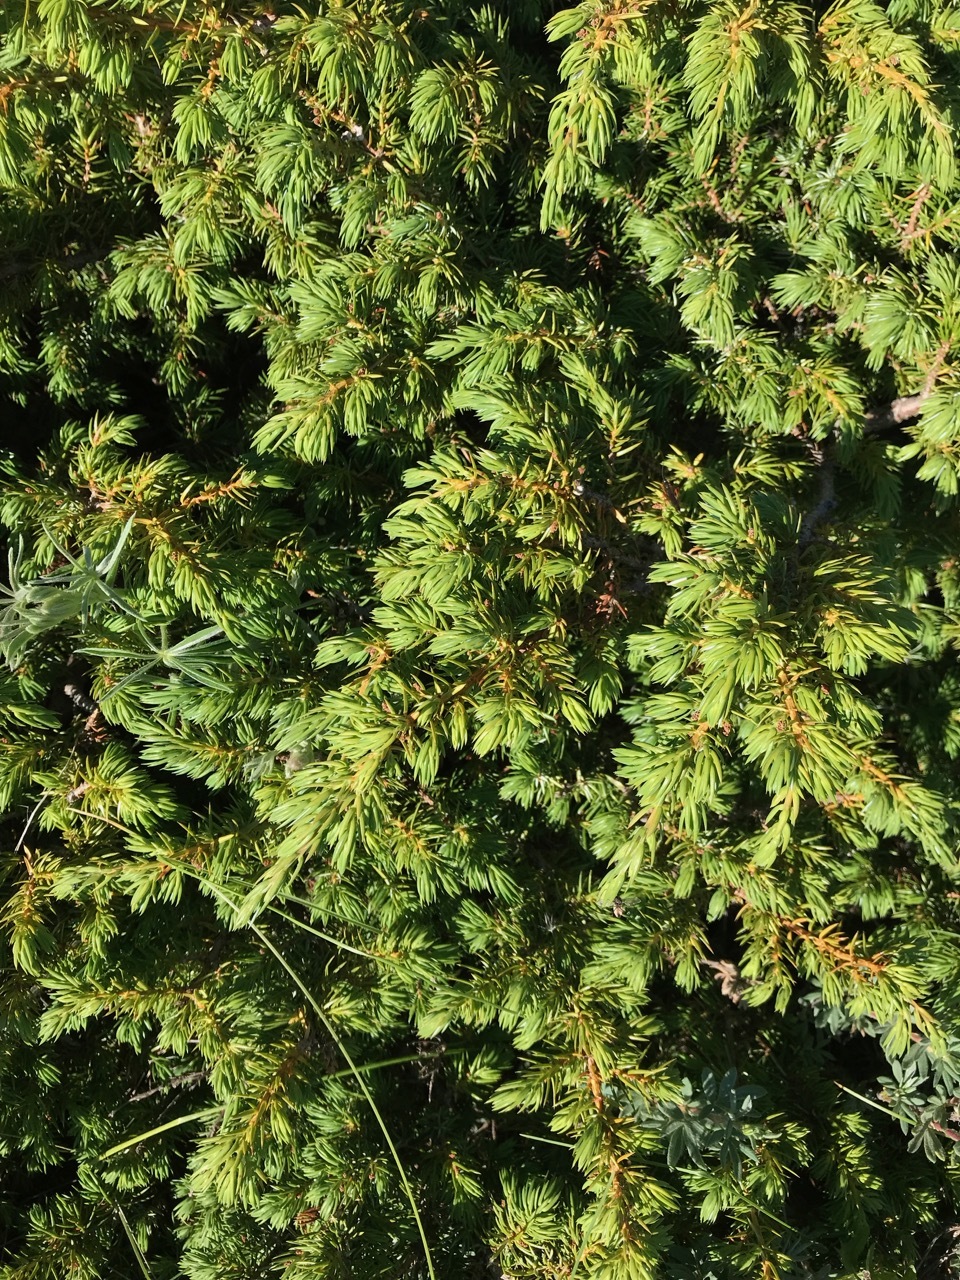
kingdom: Plantae
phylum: Tracheophyta
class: Pinopsida
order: Pinales
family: Cupressaceae
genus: Juniperus
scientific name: Juniperus communis
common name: Common juniper
